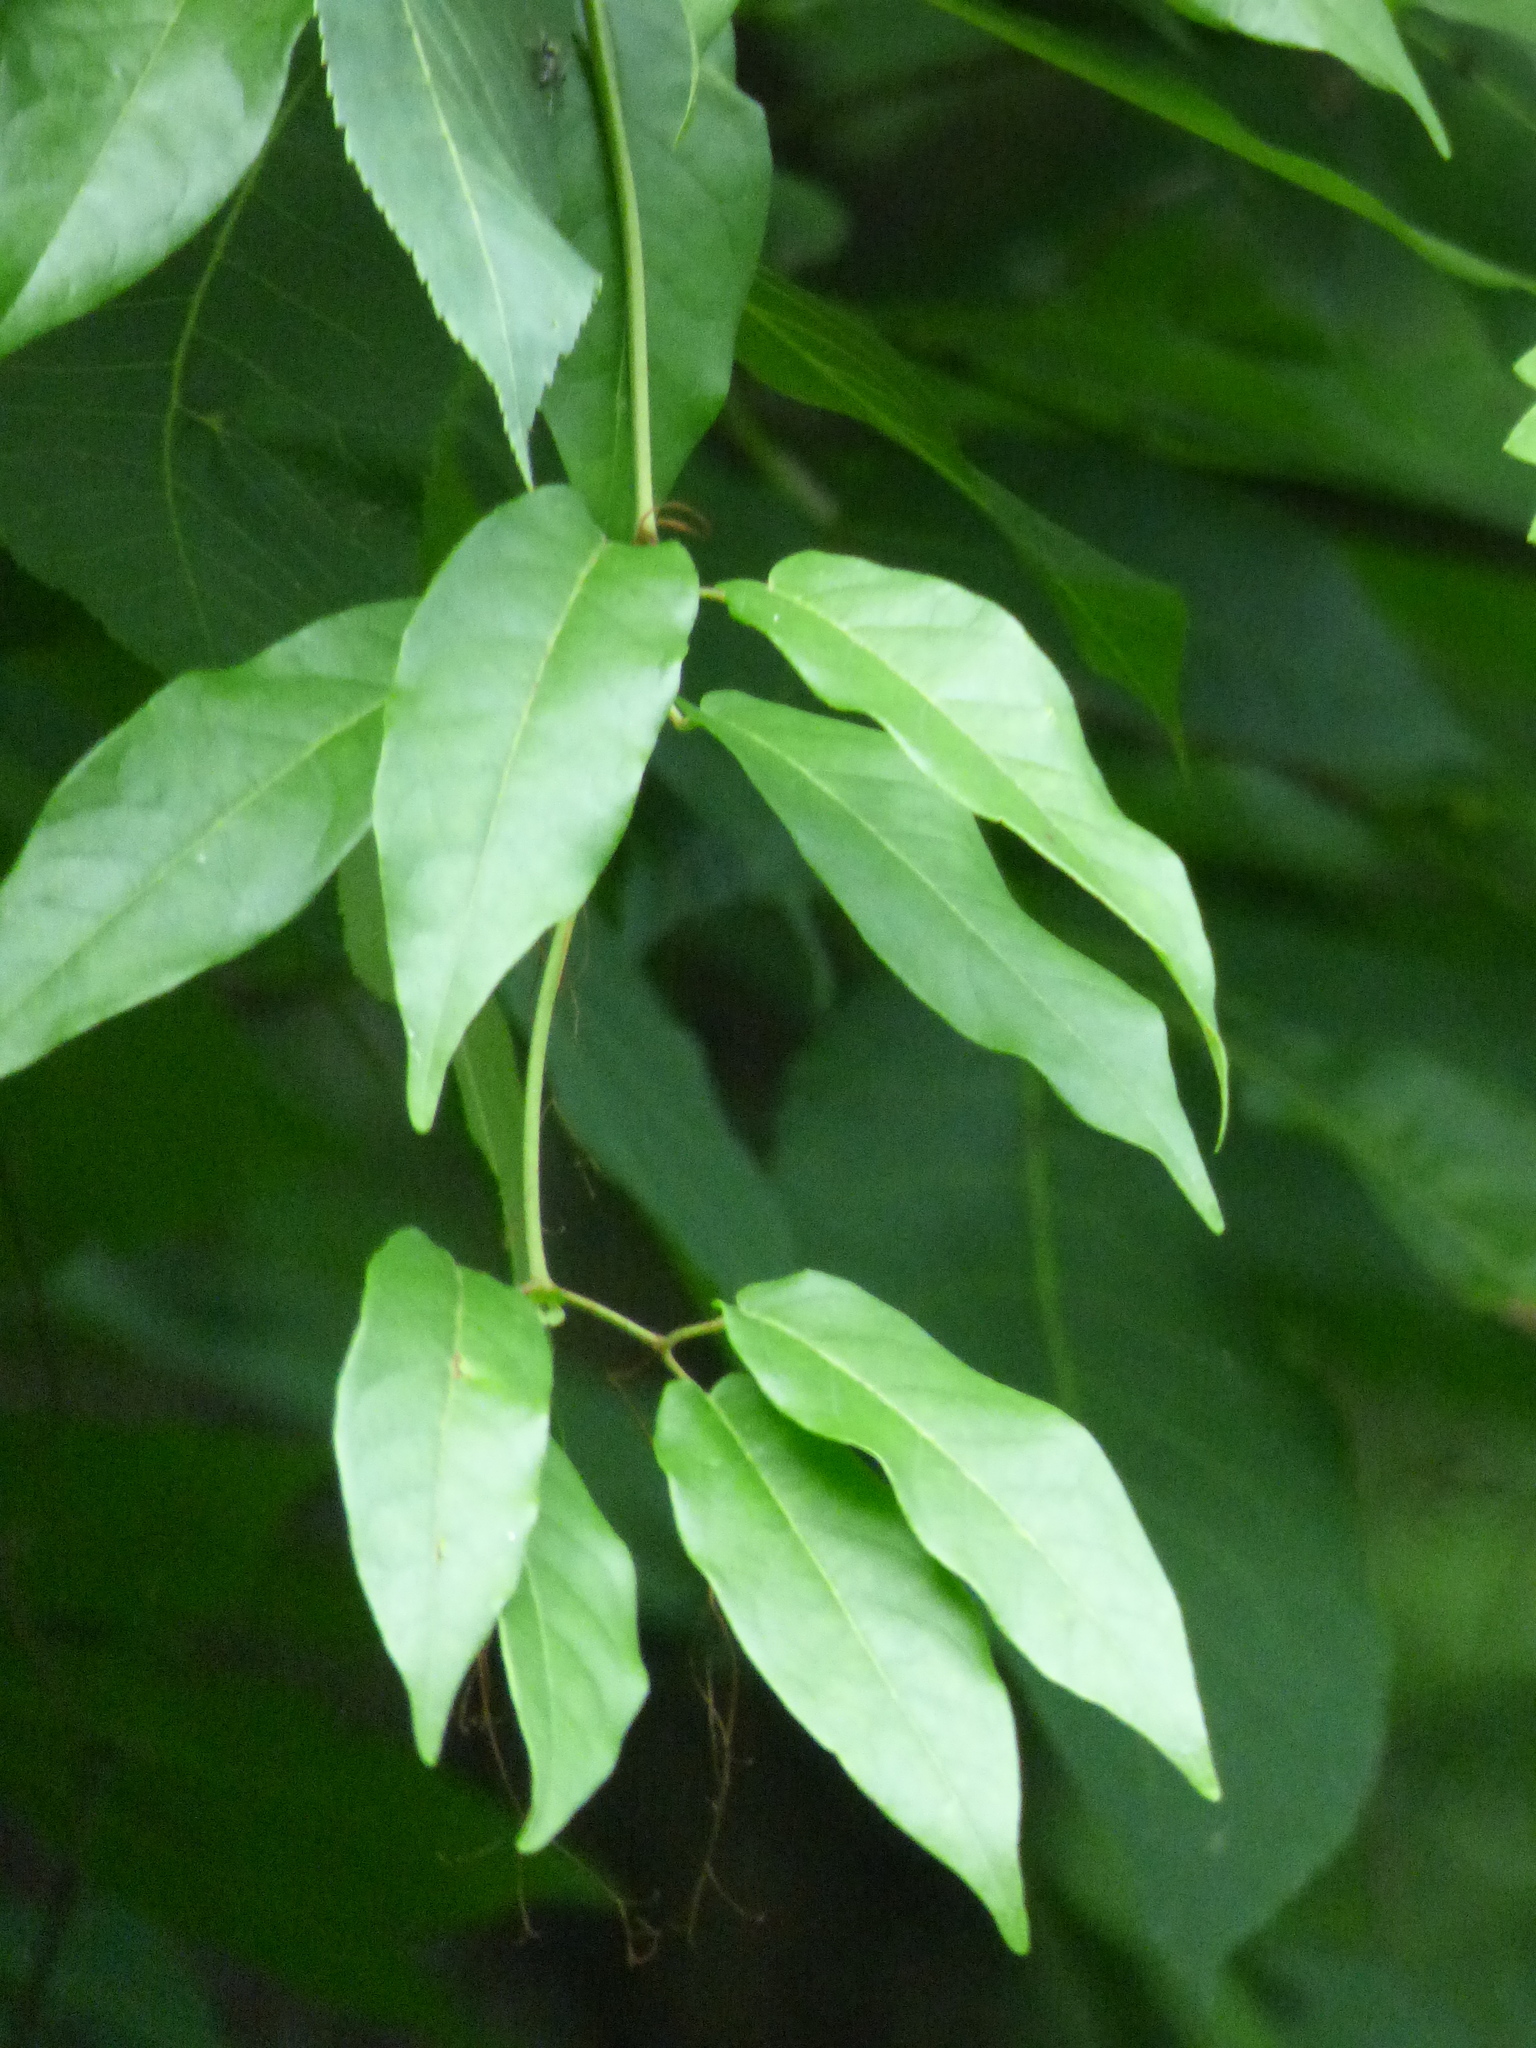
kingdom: Plantae
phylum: Tracheophyta
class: Magnoliopsida
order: Lamiales
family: Bignoniaceae
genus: Bignonia
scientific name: Bignonia capreolata
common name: Crossvine
